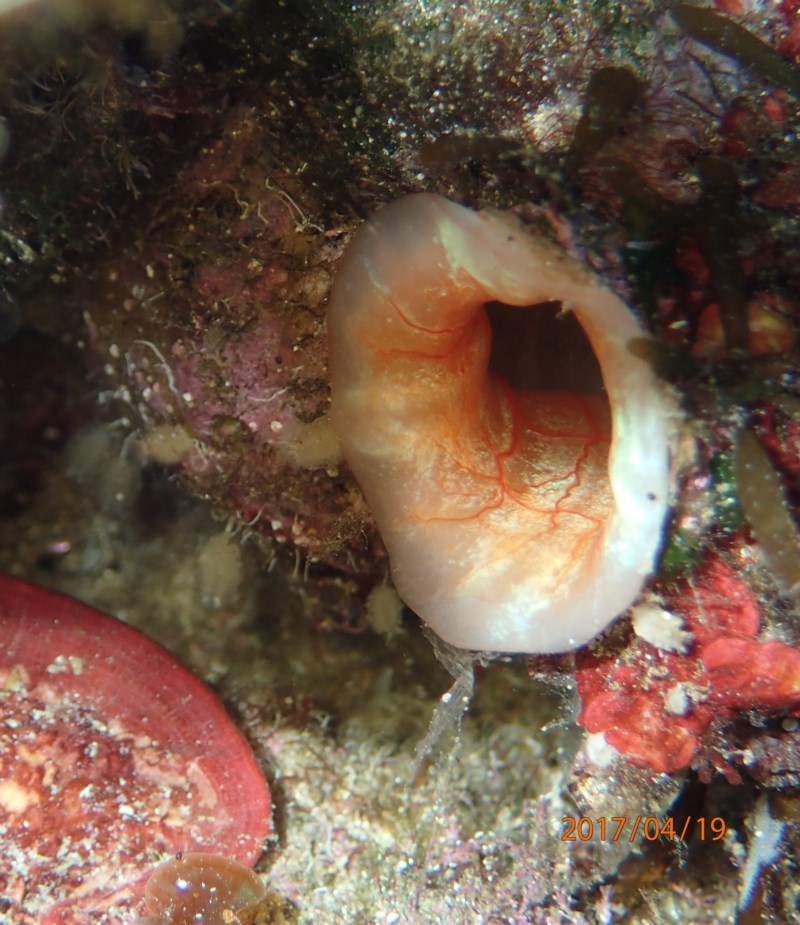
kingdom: Animalia
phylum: Chordata
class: Ascidiacea
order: Stolidobranchia
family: Pyuridae
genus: Herdmania
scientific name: Herdmania momus
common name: Red-throated ascidian
